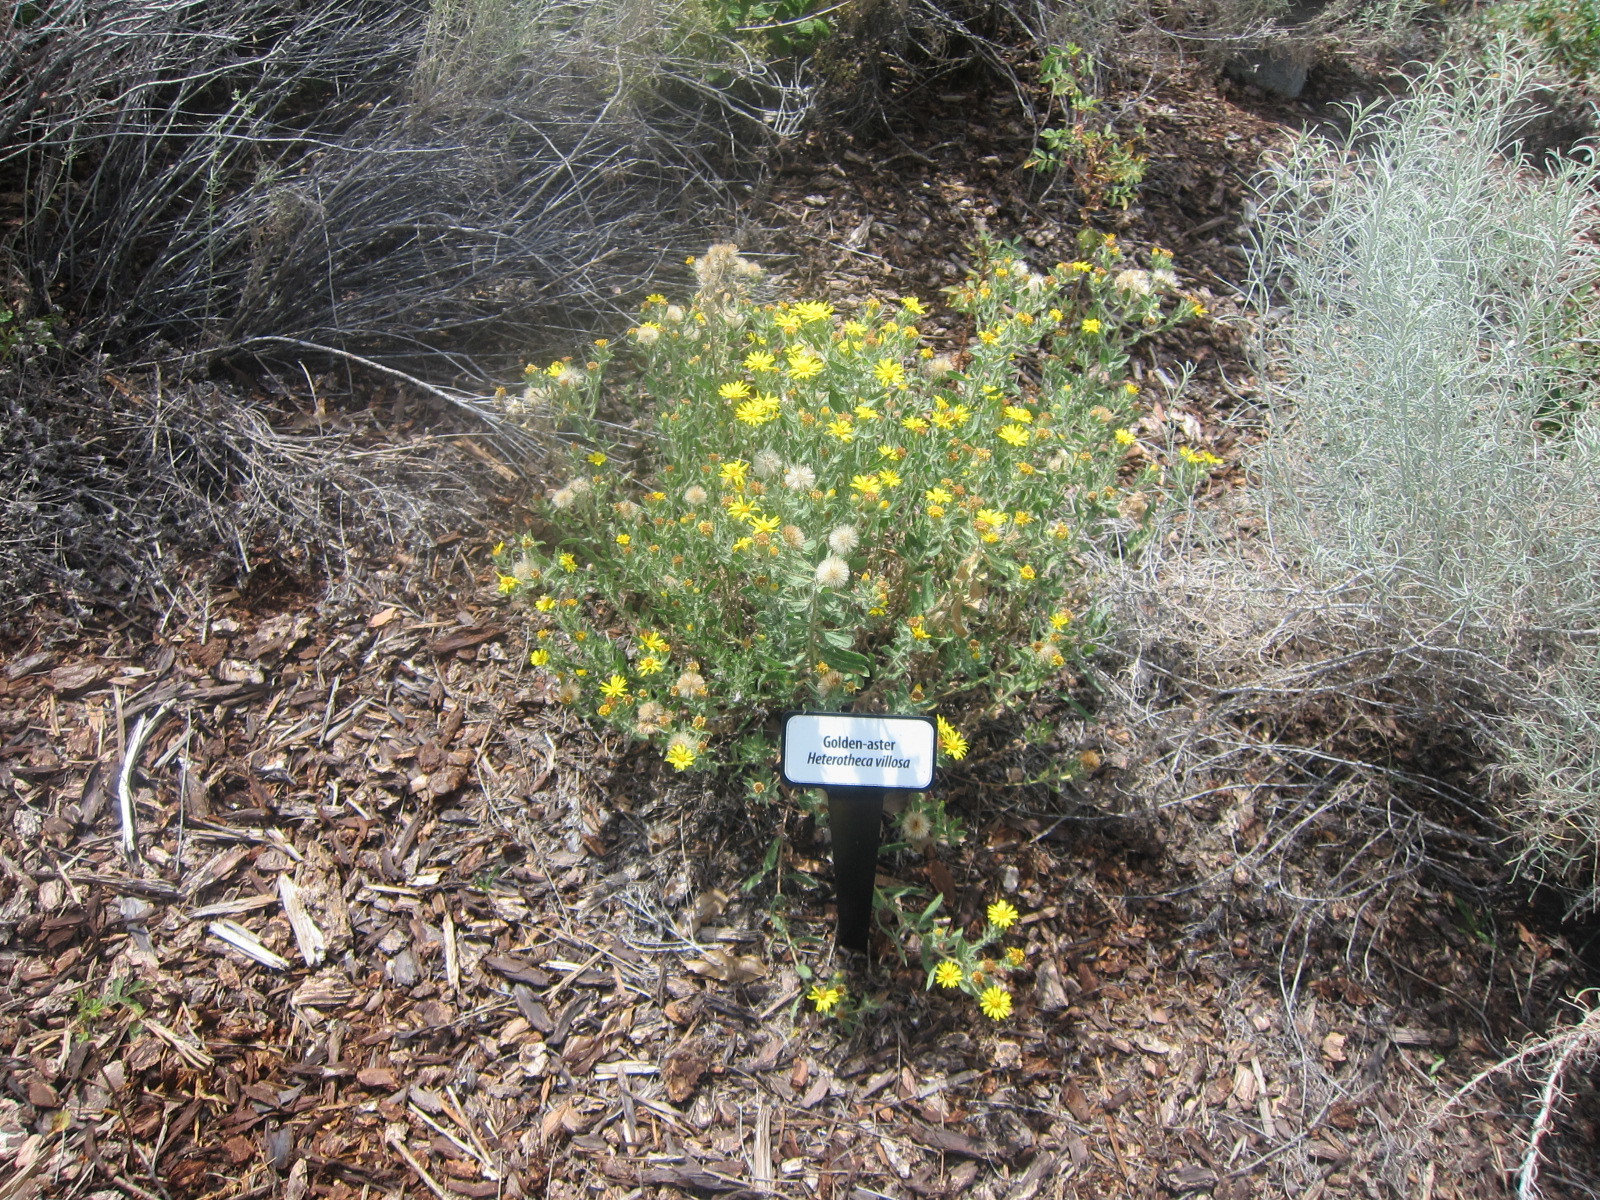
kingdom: Plantae
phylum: Tracheophyta
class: Magnoliopsida
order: Asterales
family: Asteraceae
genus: Heterotheca
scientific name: Heterotheca villosa
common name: Hairy false goldenaster
